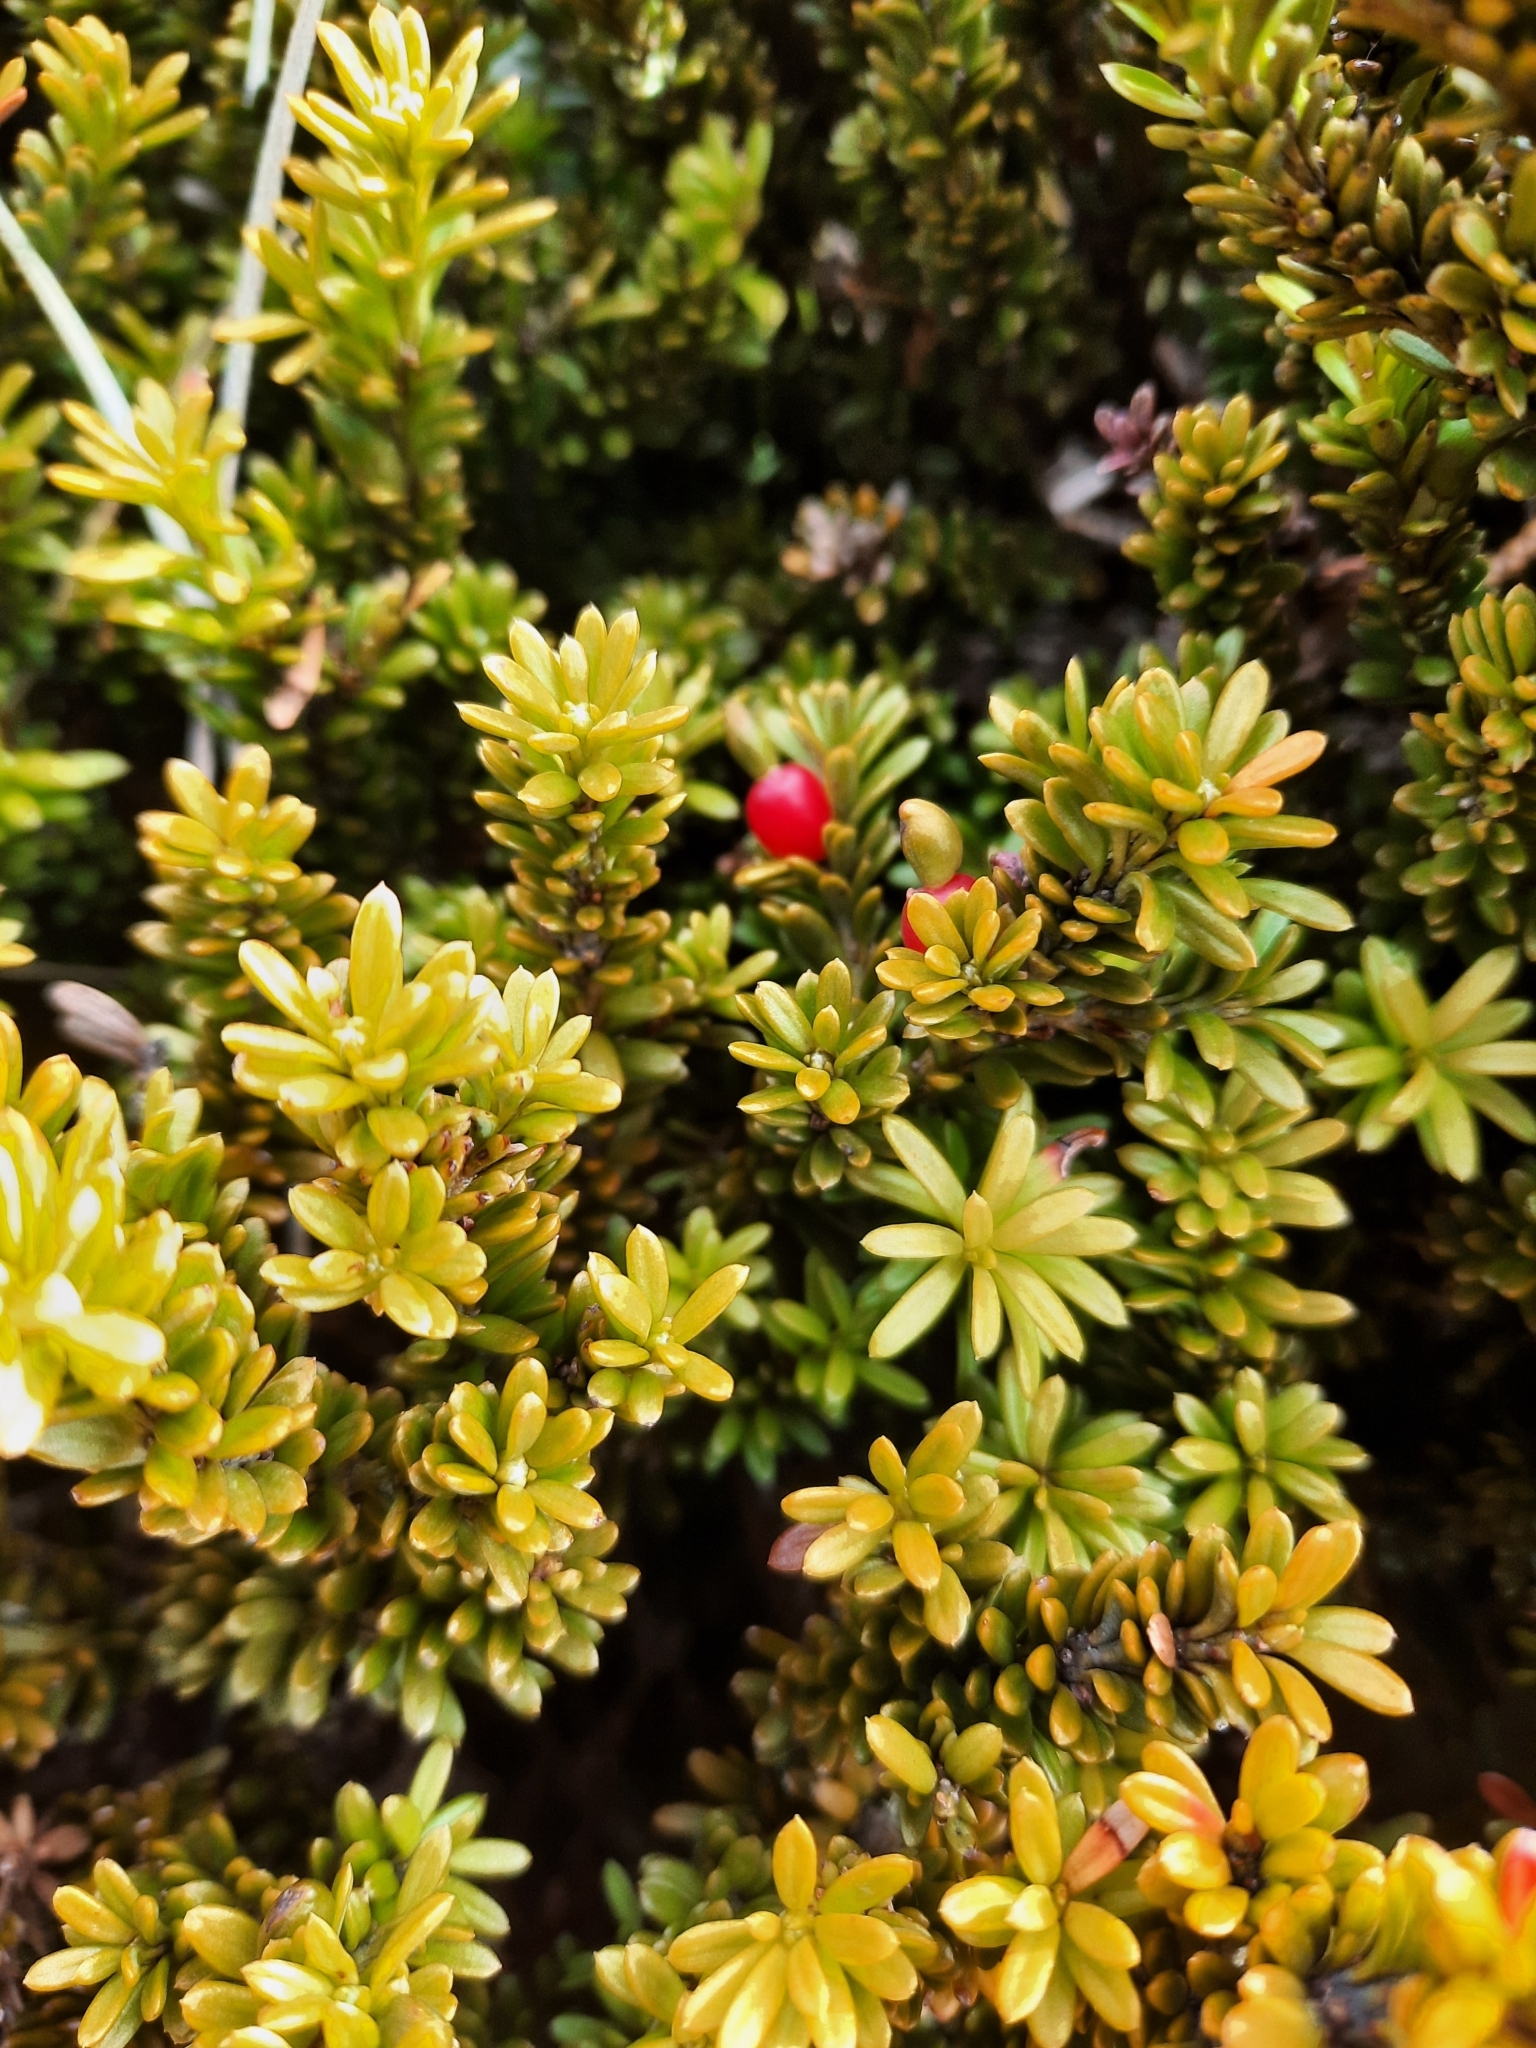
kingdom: Plantae
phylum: Tracheophyta
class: Pinopsida
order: Pinales
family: Podocarpaceae
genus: Podocarpus
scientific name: Podocarpus nivalis
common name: Alpine totara
